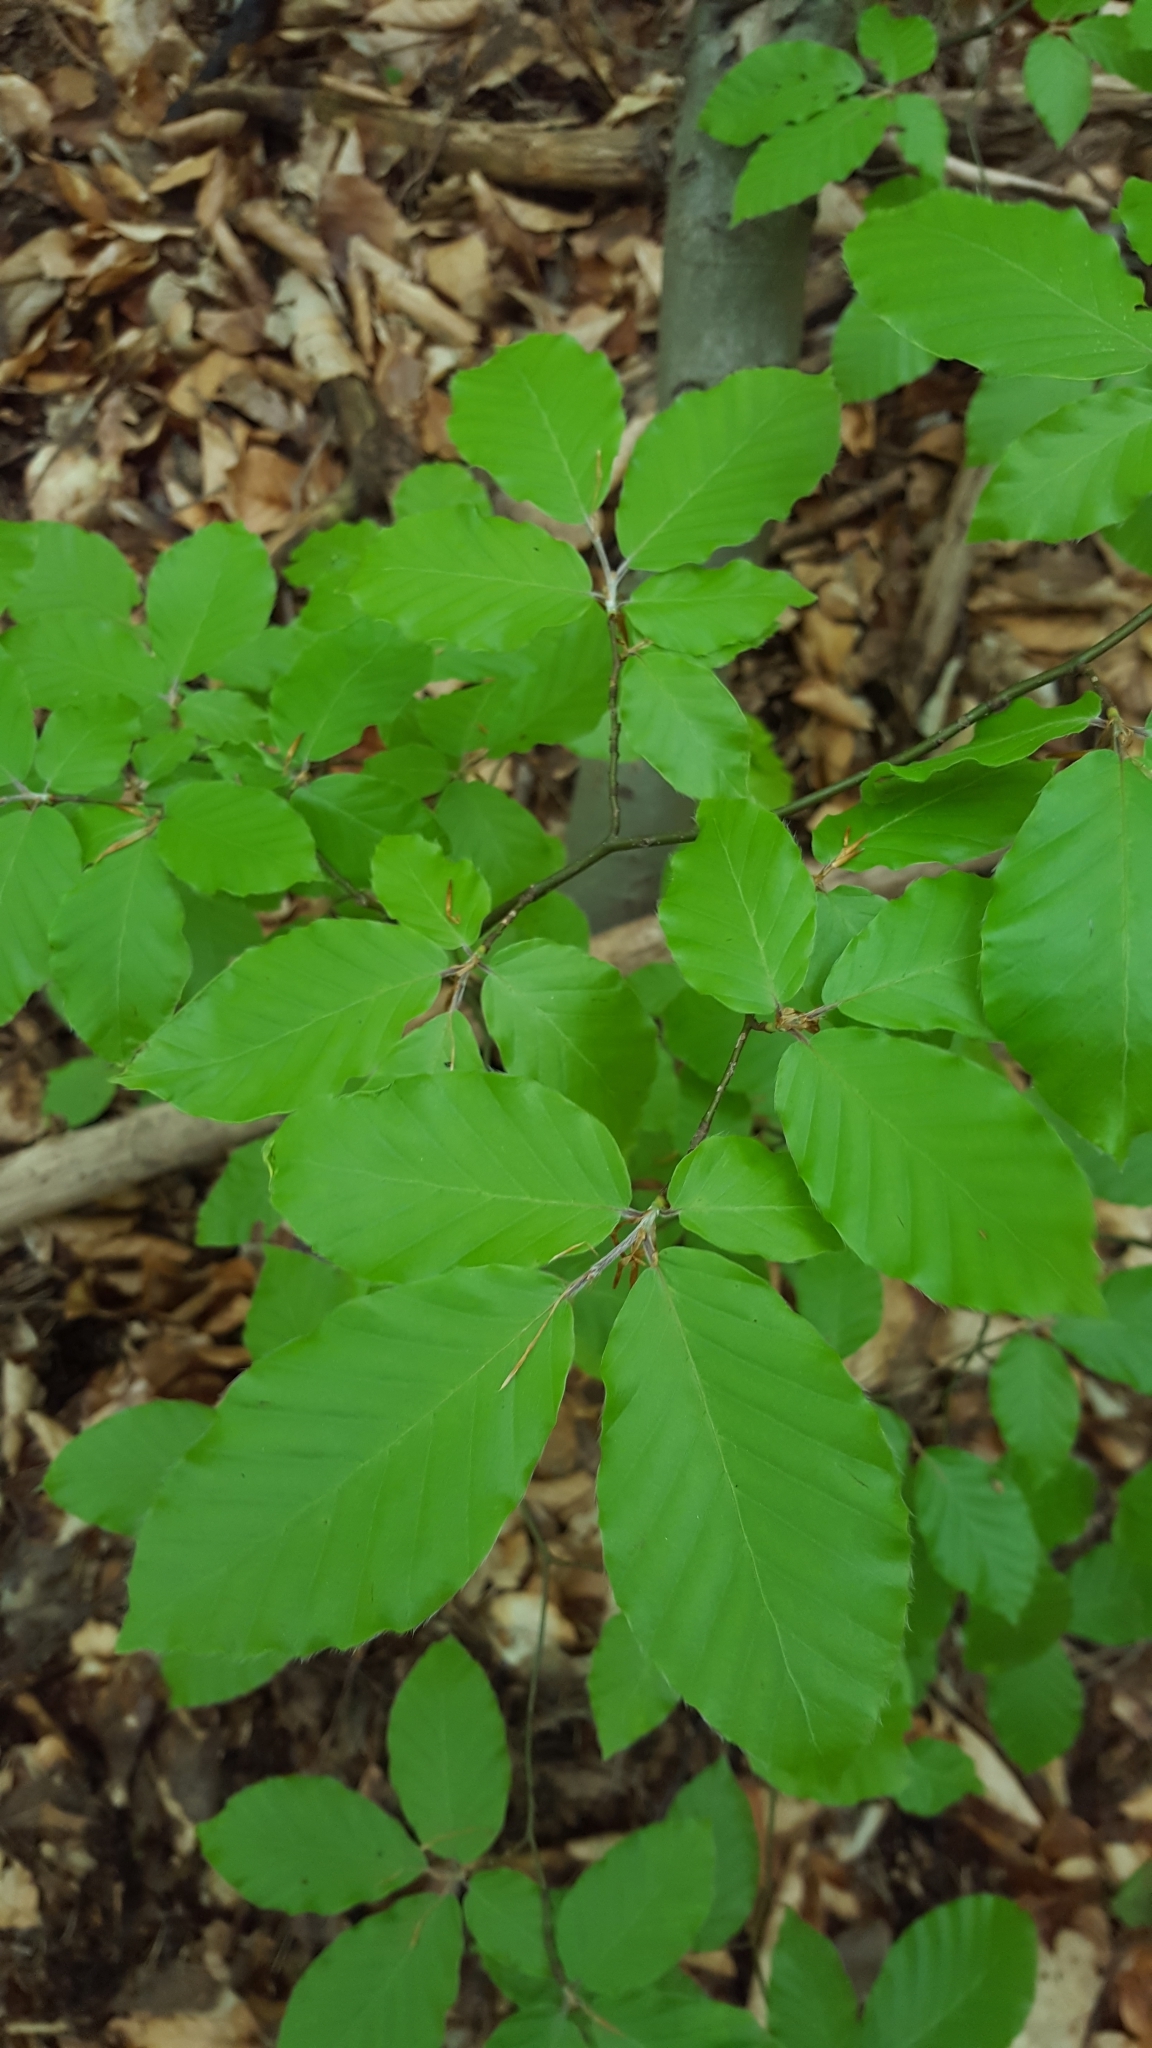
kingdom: Plantae
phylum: Tracheophyta
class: Magnoliopsida
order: Fagales
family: Fagaceae
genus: Fagus
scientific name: Fagus sylvatica
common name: Beech
